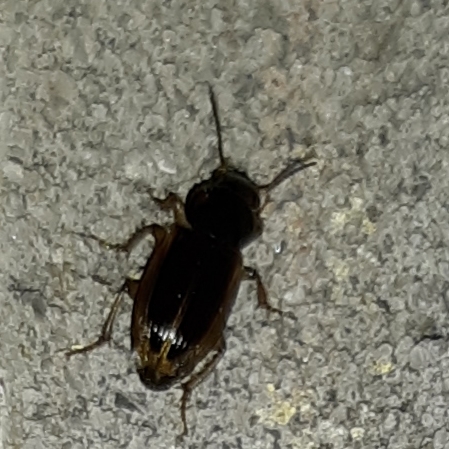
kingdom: Animalia
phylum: Arthropoda
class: Insecta
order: Coleoptera
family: Carabidae
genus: Stenolophus
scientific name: Stenolophus infuscatus
